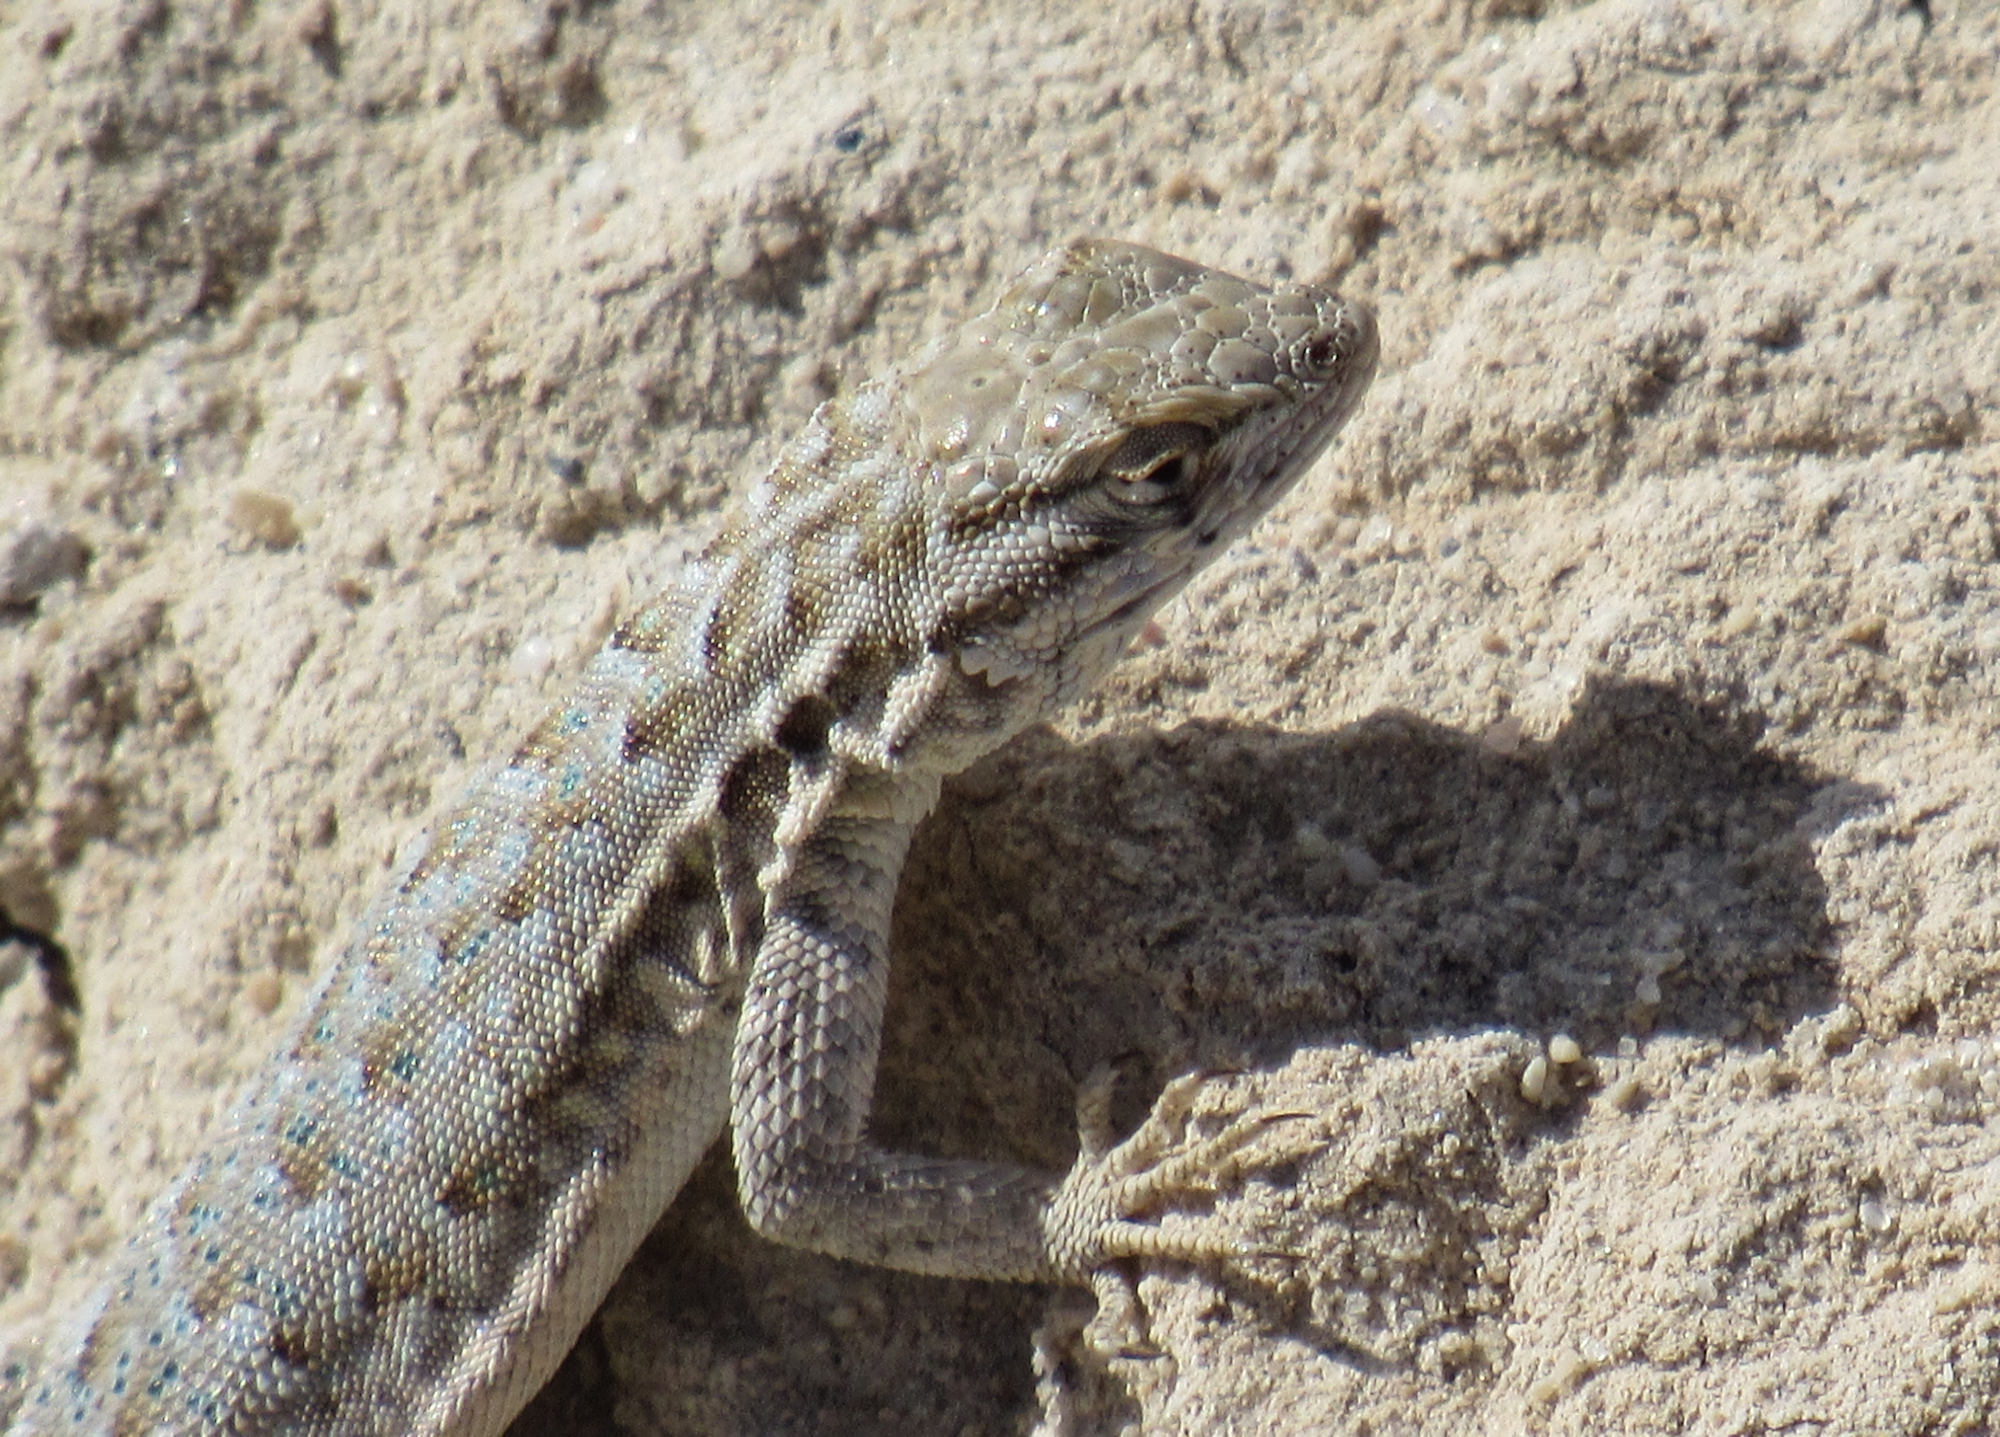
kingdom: Animalia
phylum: Chordata
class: Squamata
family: Phrynosomatidae
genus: Uta
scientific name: Uta stansburiana
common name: Side-blotched lizard
